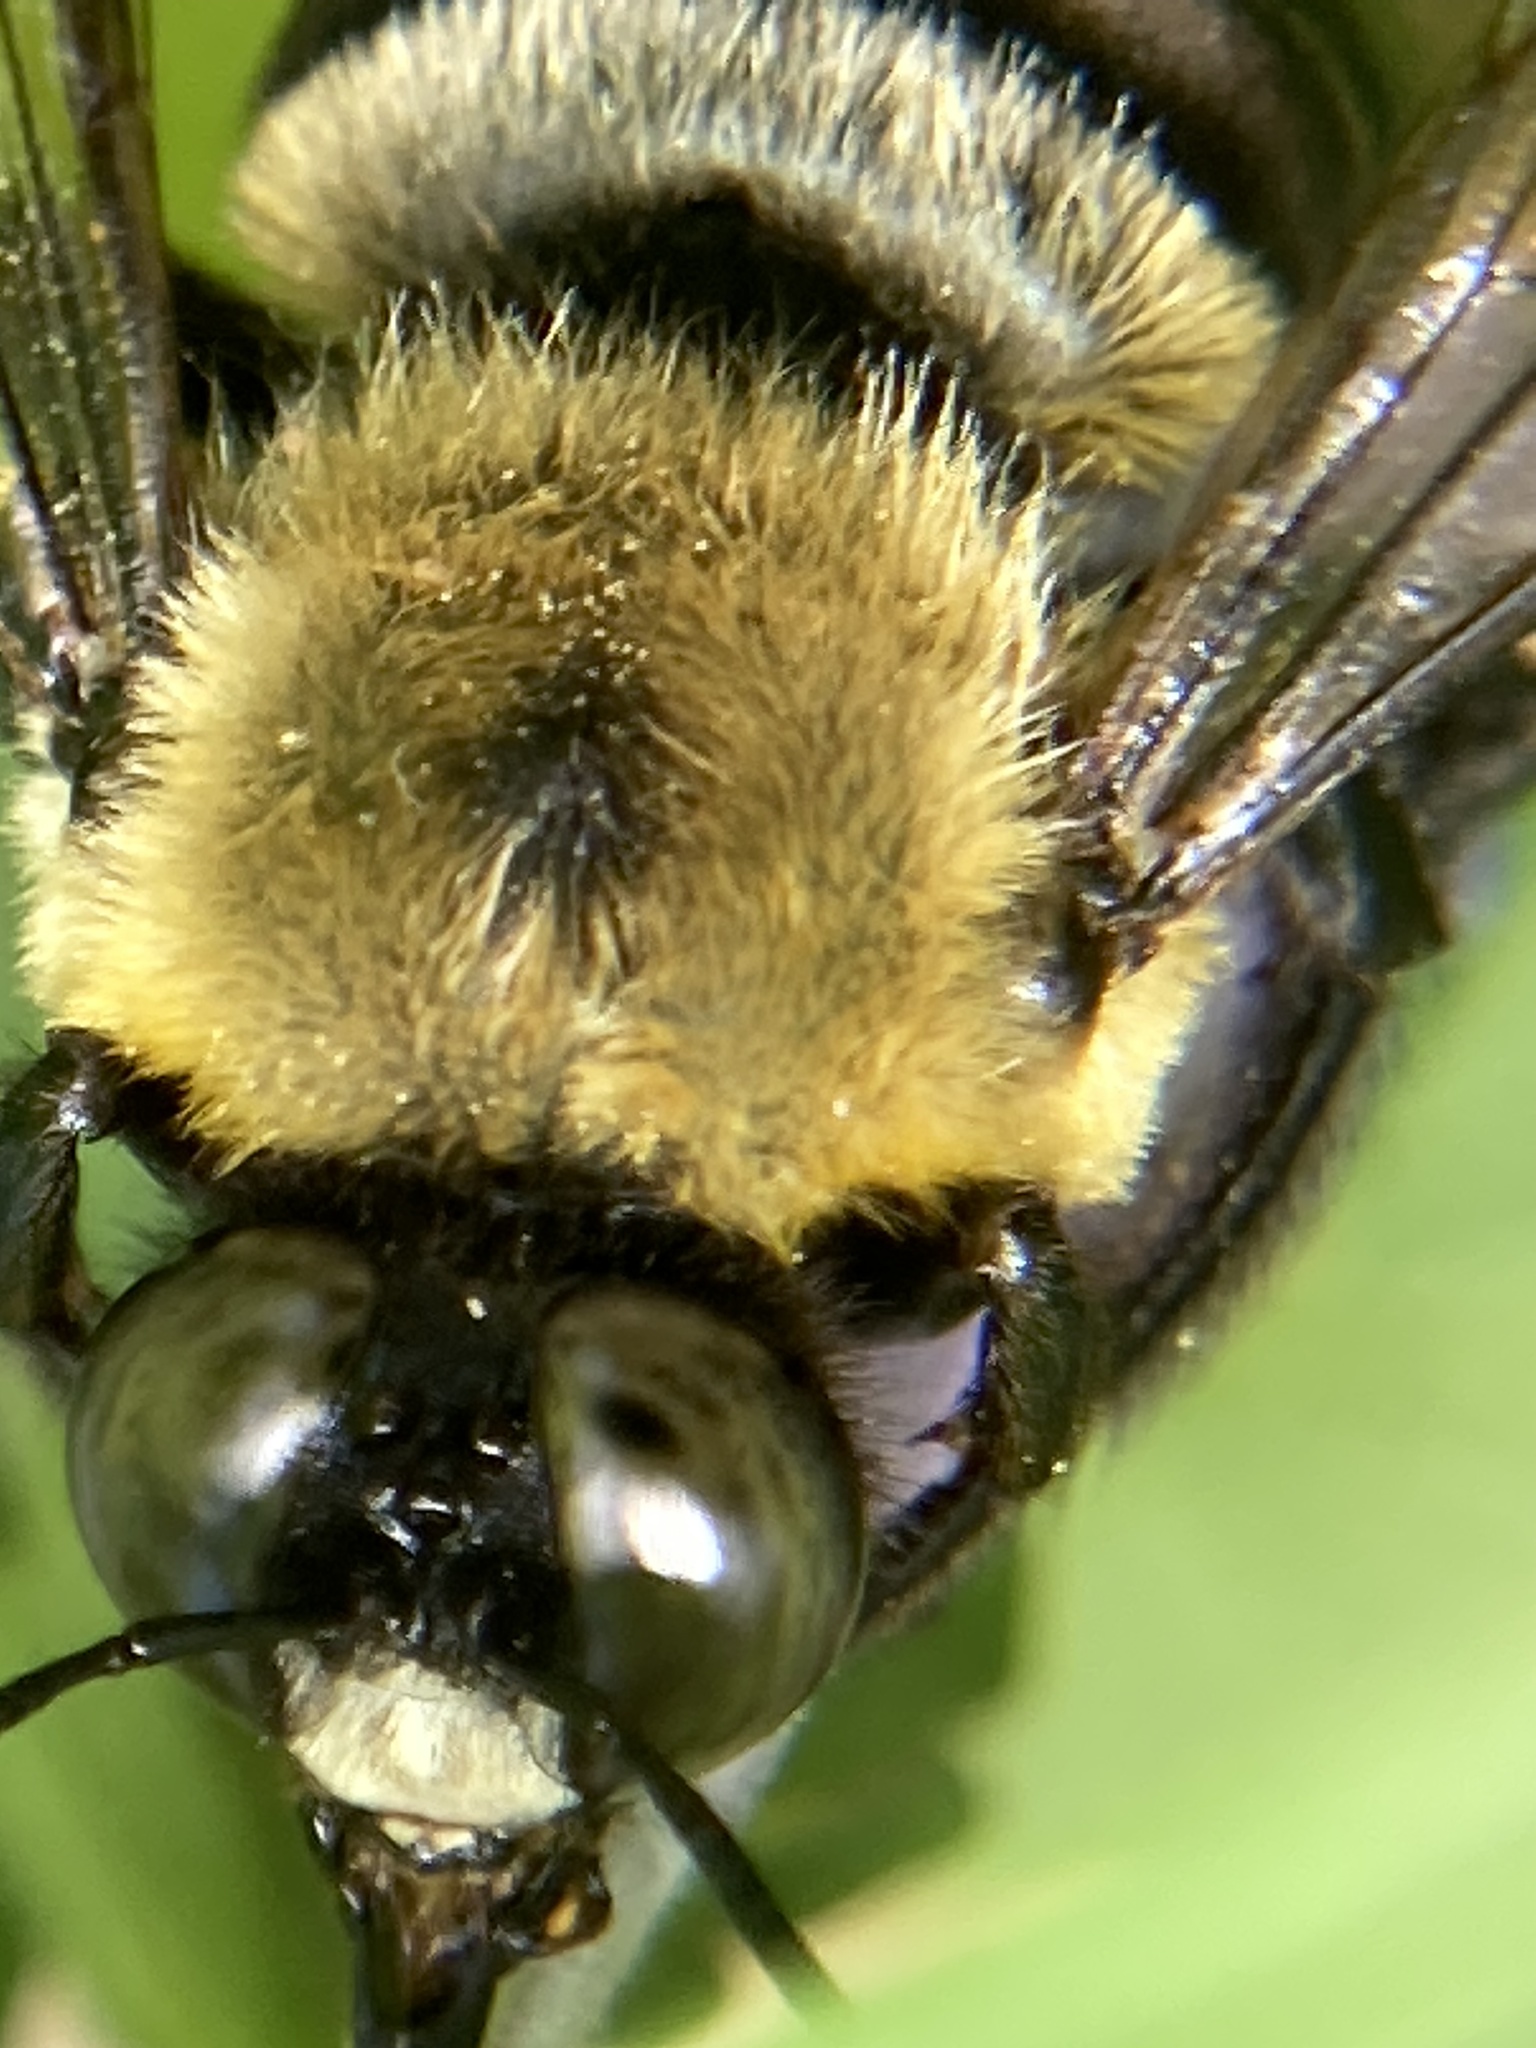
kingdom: Animalia
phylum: Arthropoda
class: Insecta
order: Hymenoptera
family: Apidae
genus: Xylocopa
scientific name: Xylocopa virginica
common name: Carpenter bee
